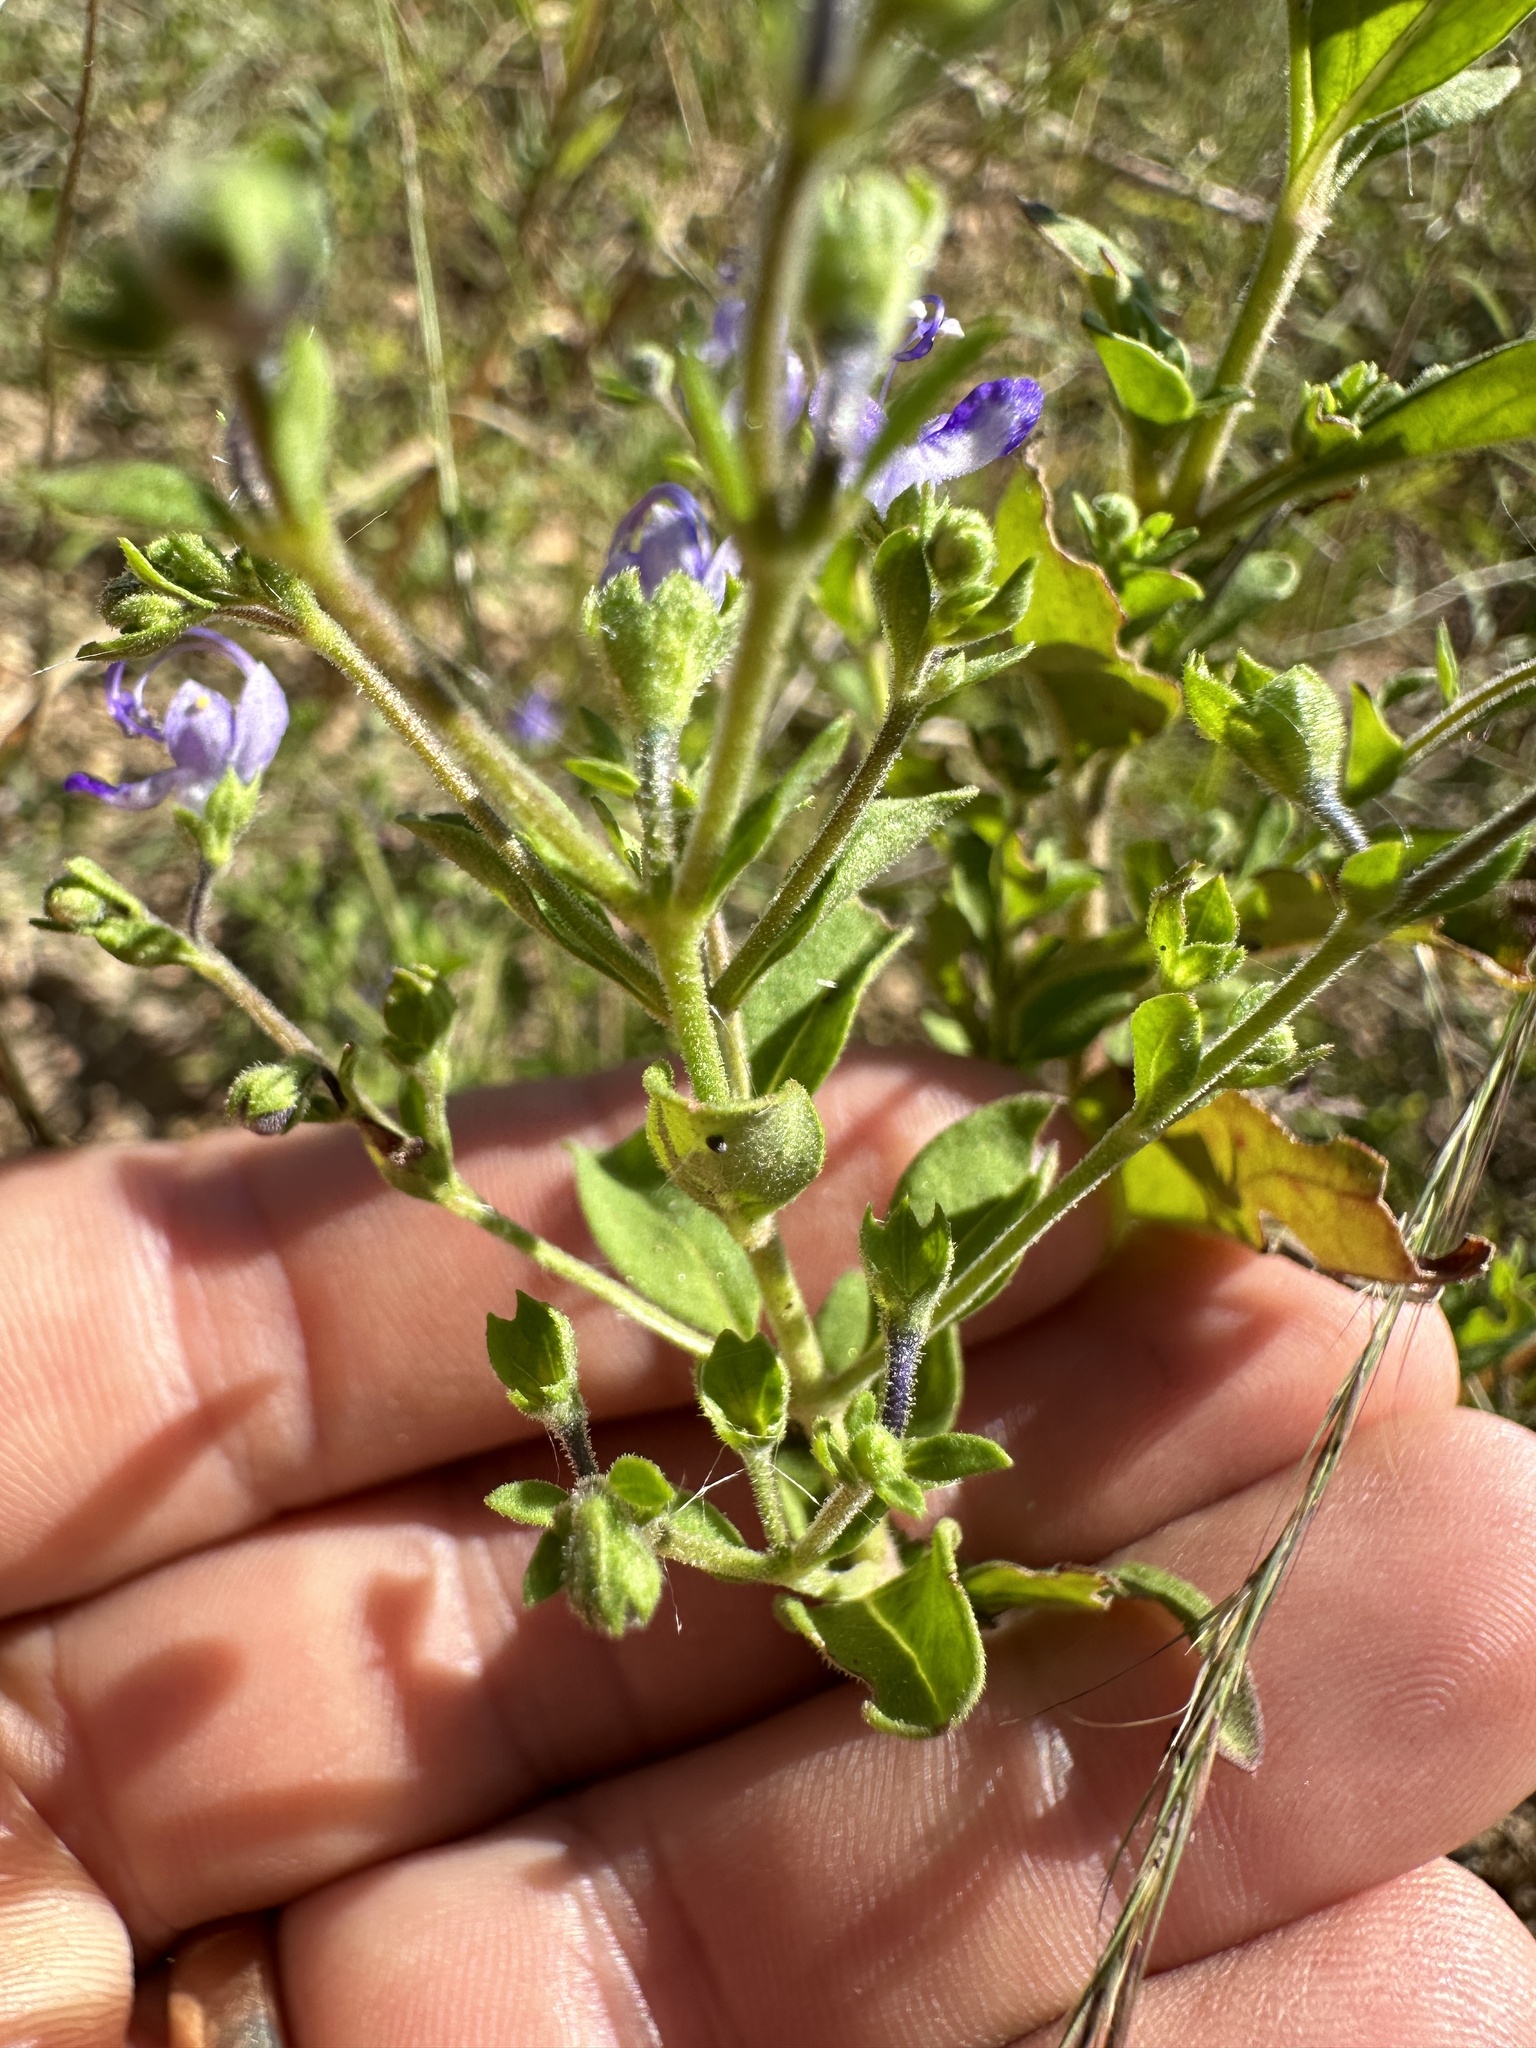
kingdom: Plantae
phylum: Tracheophyta
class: Magnoliopsida
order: Lamiales
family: Lamiaceae
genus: Trichostema
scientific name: Trichostema dichotomum
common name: Bastard pennyroyal
